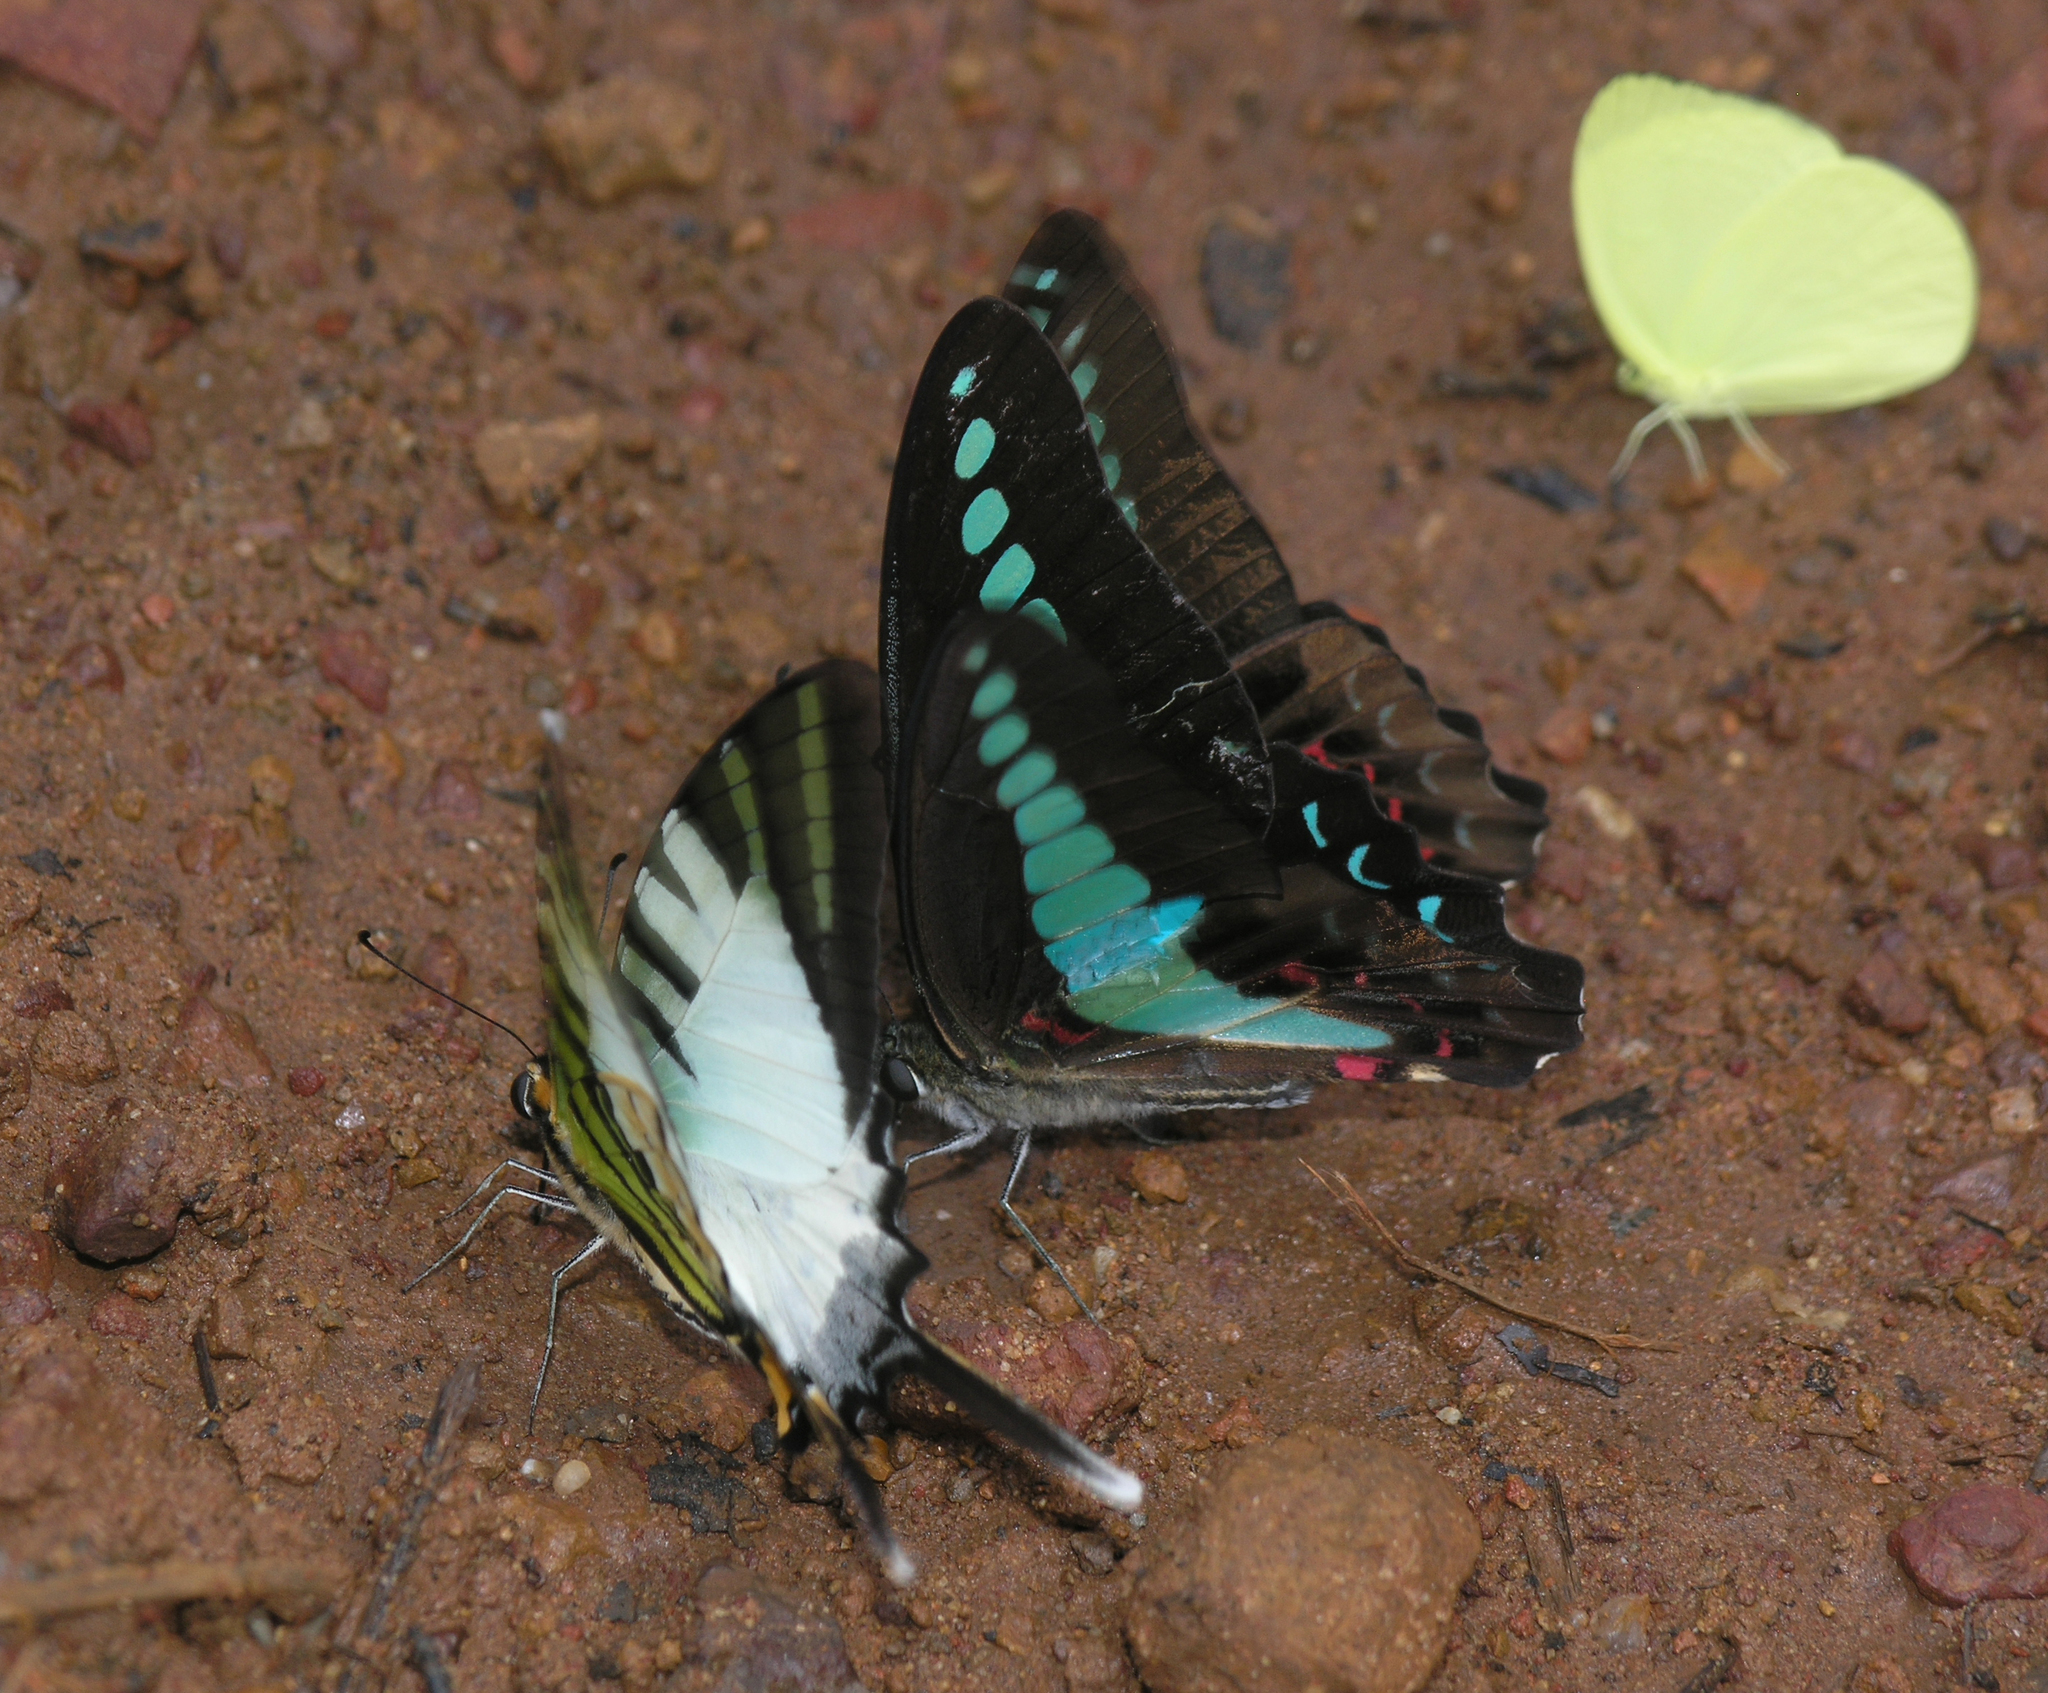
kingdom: Animalia
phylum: Arthropoda
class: Insecta
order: Lepidoptera
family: Pieridae
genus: Gandaca
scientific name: Gandaca harina
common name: Tree yellow
